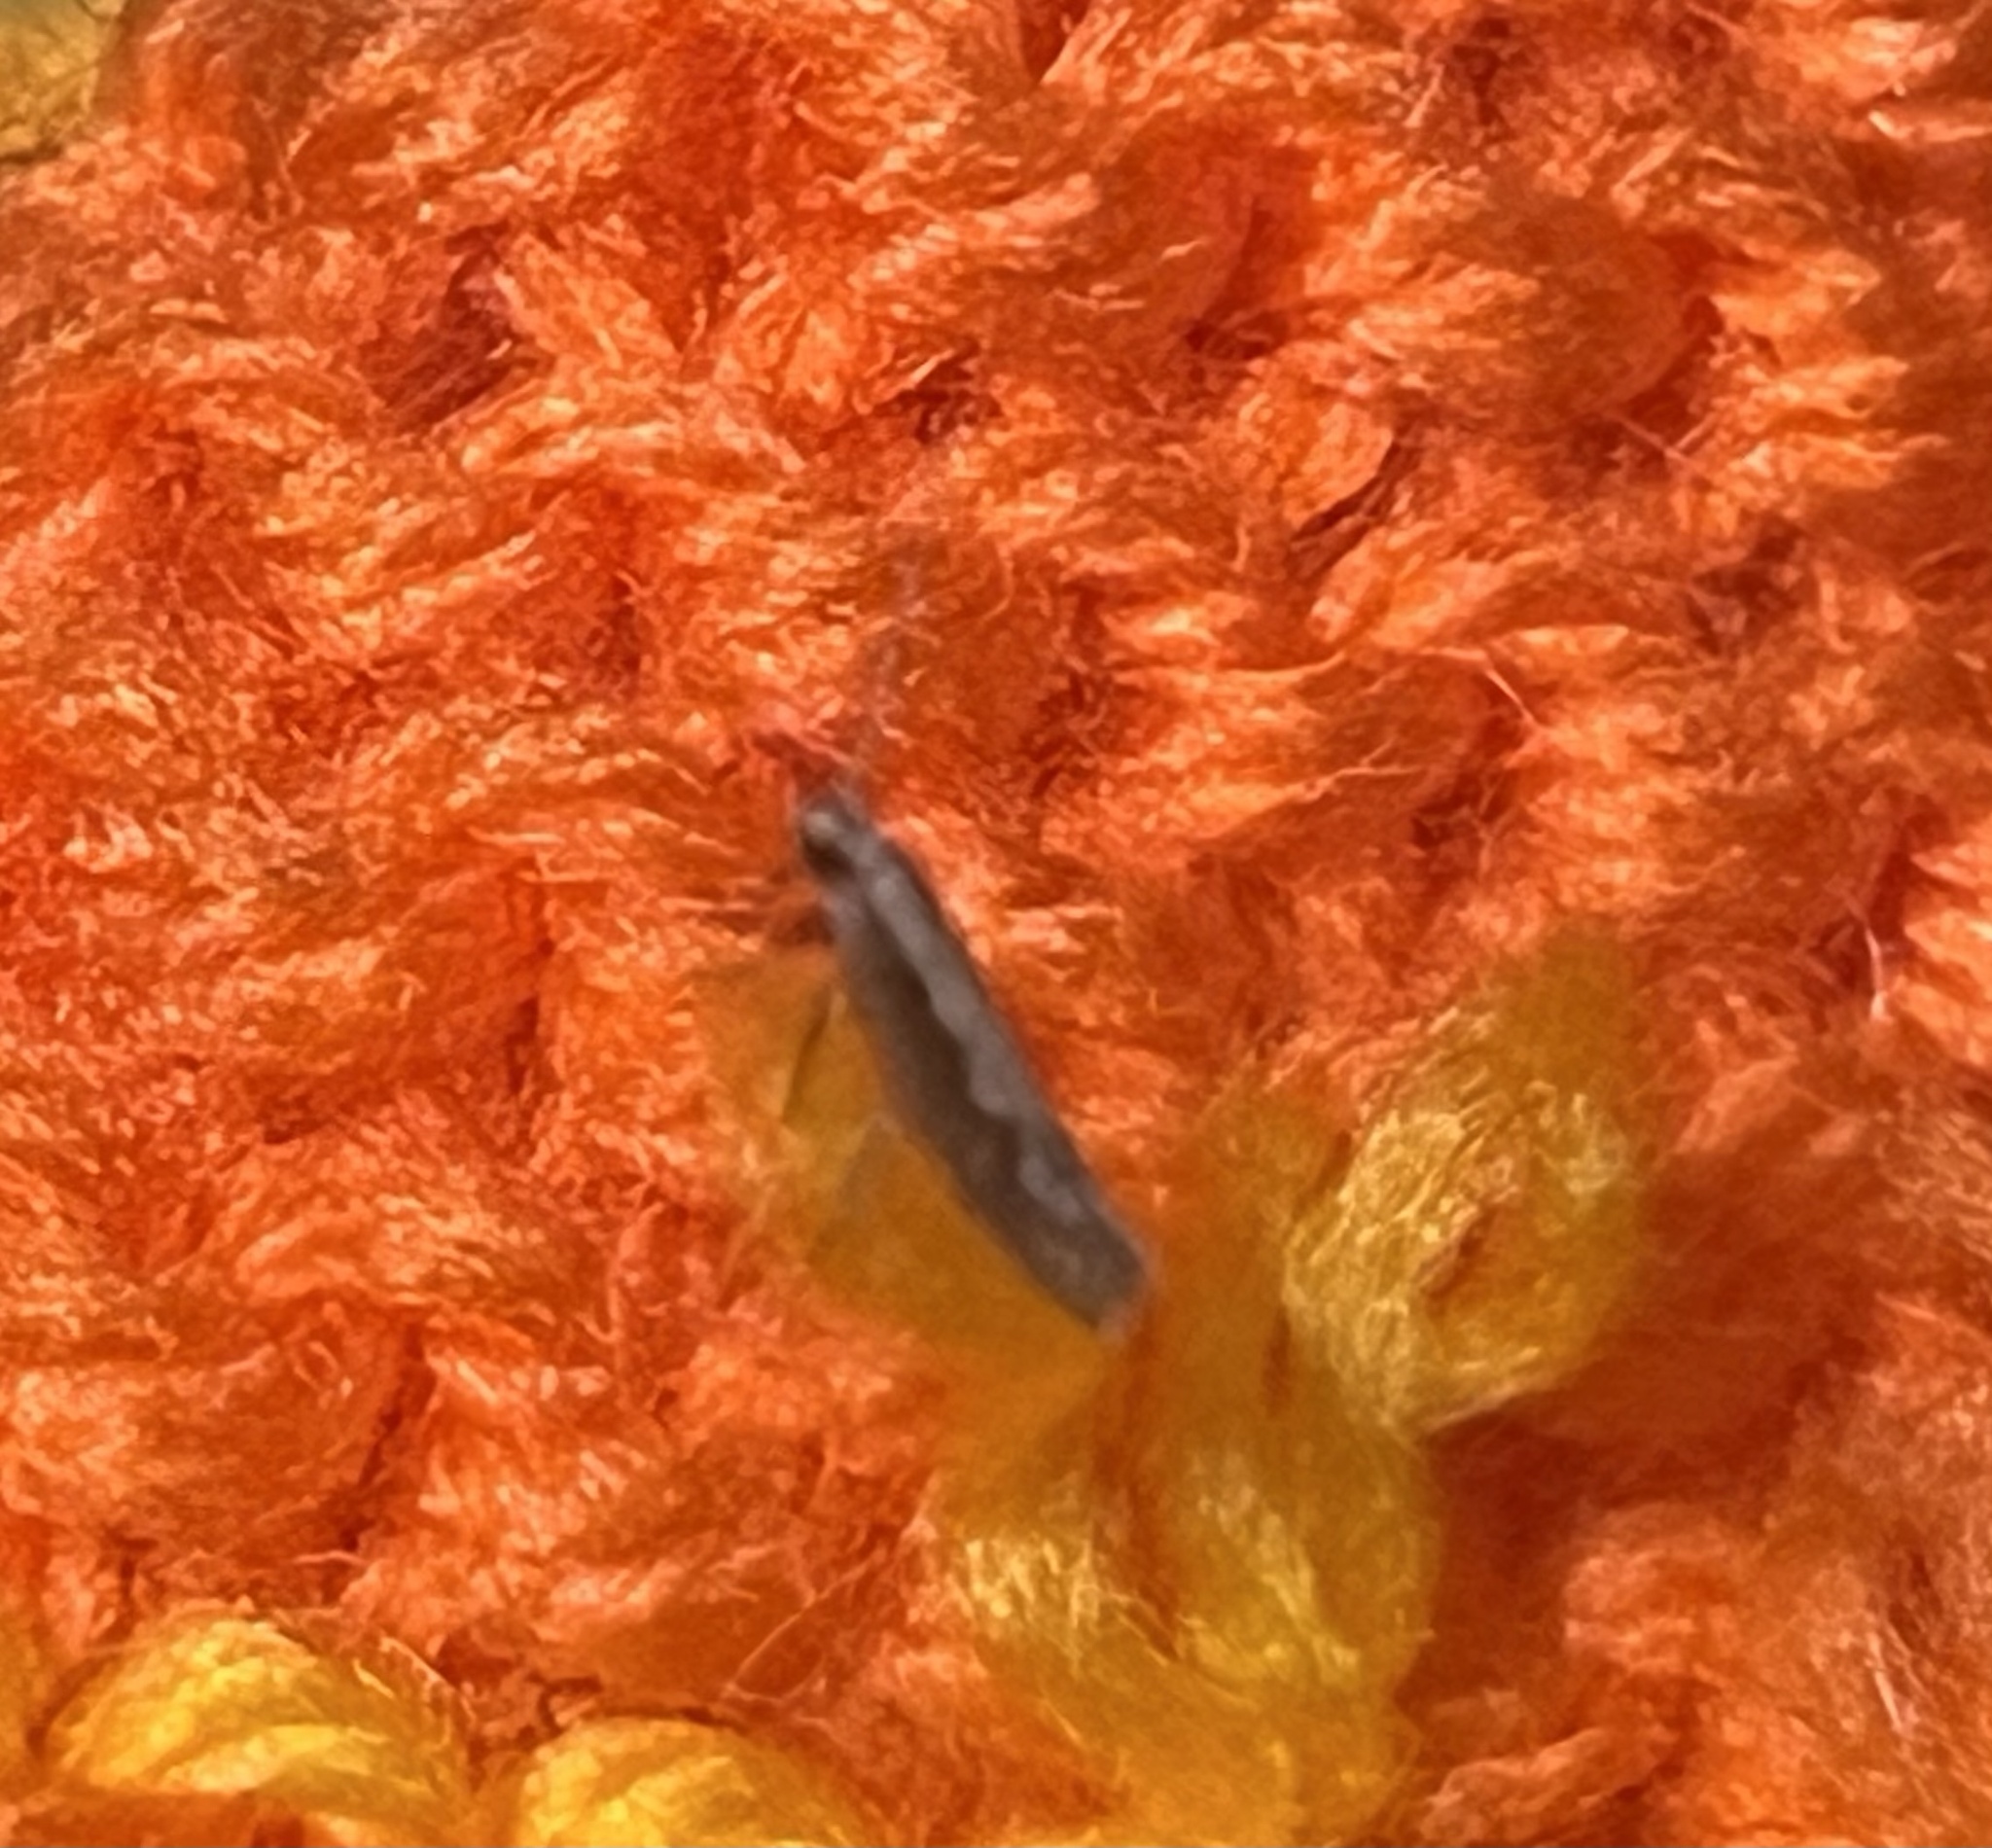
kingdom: Animalia
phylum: Arthropoda
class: Insecta
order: Lepidoptera
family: Plutellidae
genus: Plutella
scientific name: Plutella xylostella
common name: Diamond-back moth
